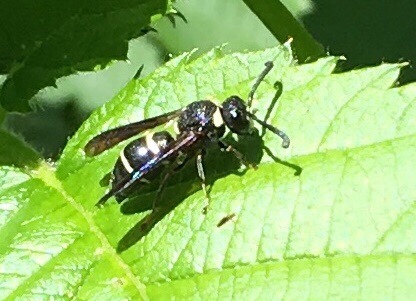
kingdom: Animalia
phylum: Arthropoda
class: Insecta
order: Hymenoptera
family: Eumenidae
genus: Euodynerus
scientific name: Euodynerus megaera
